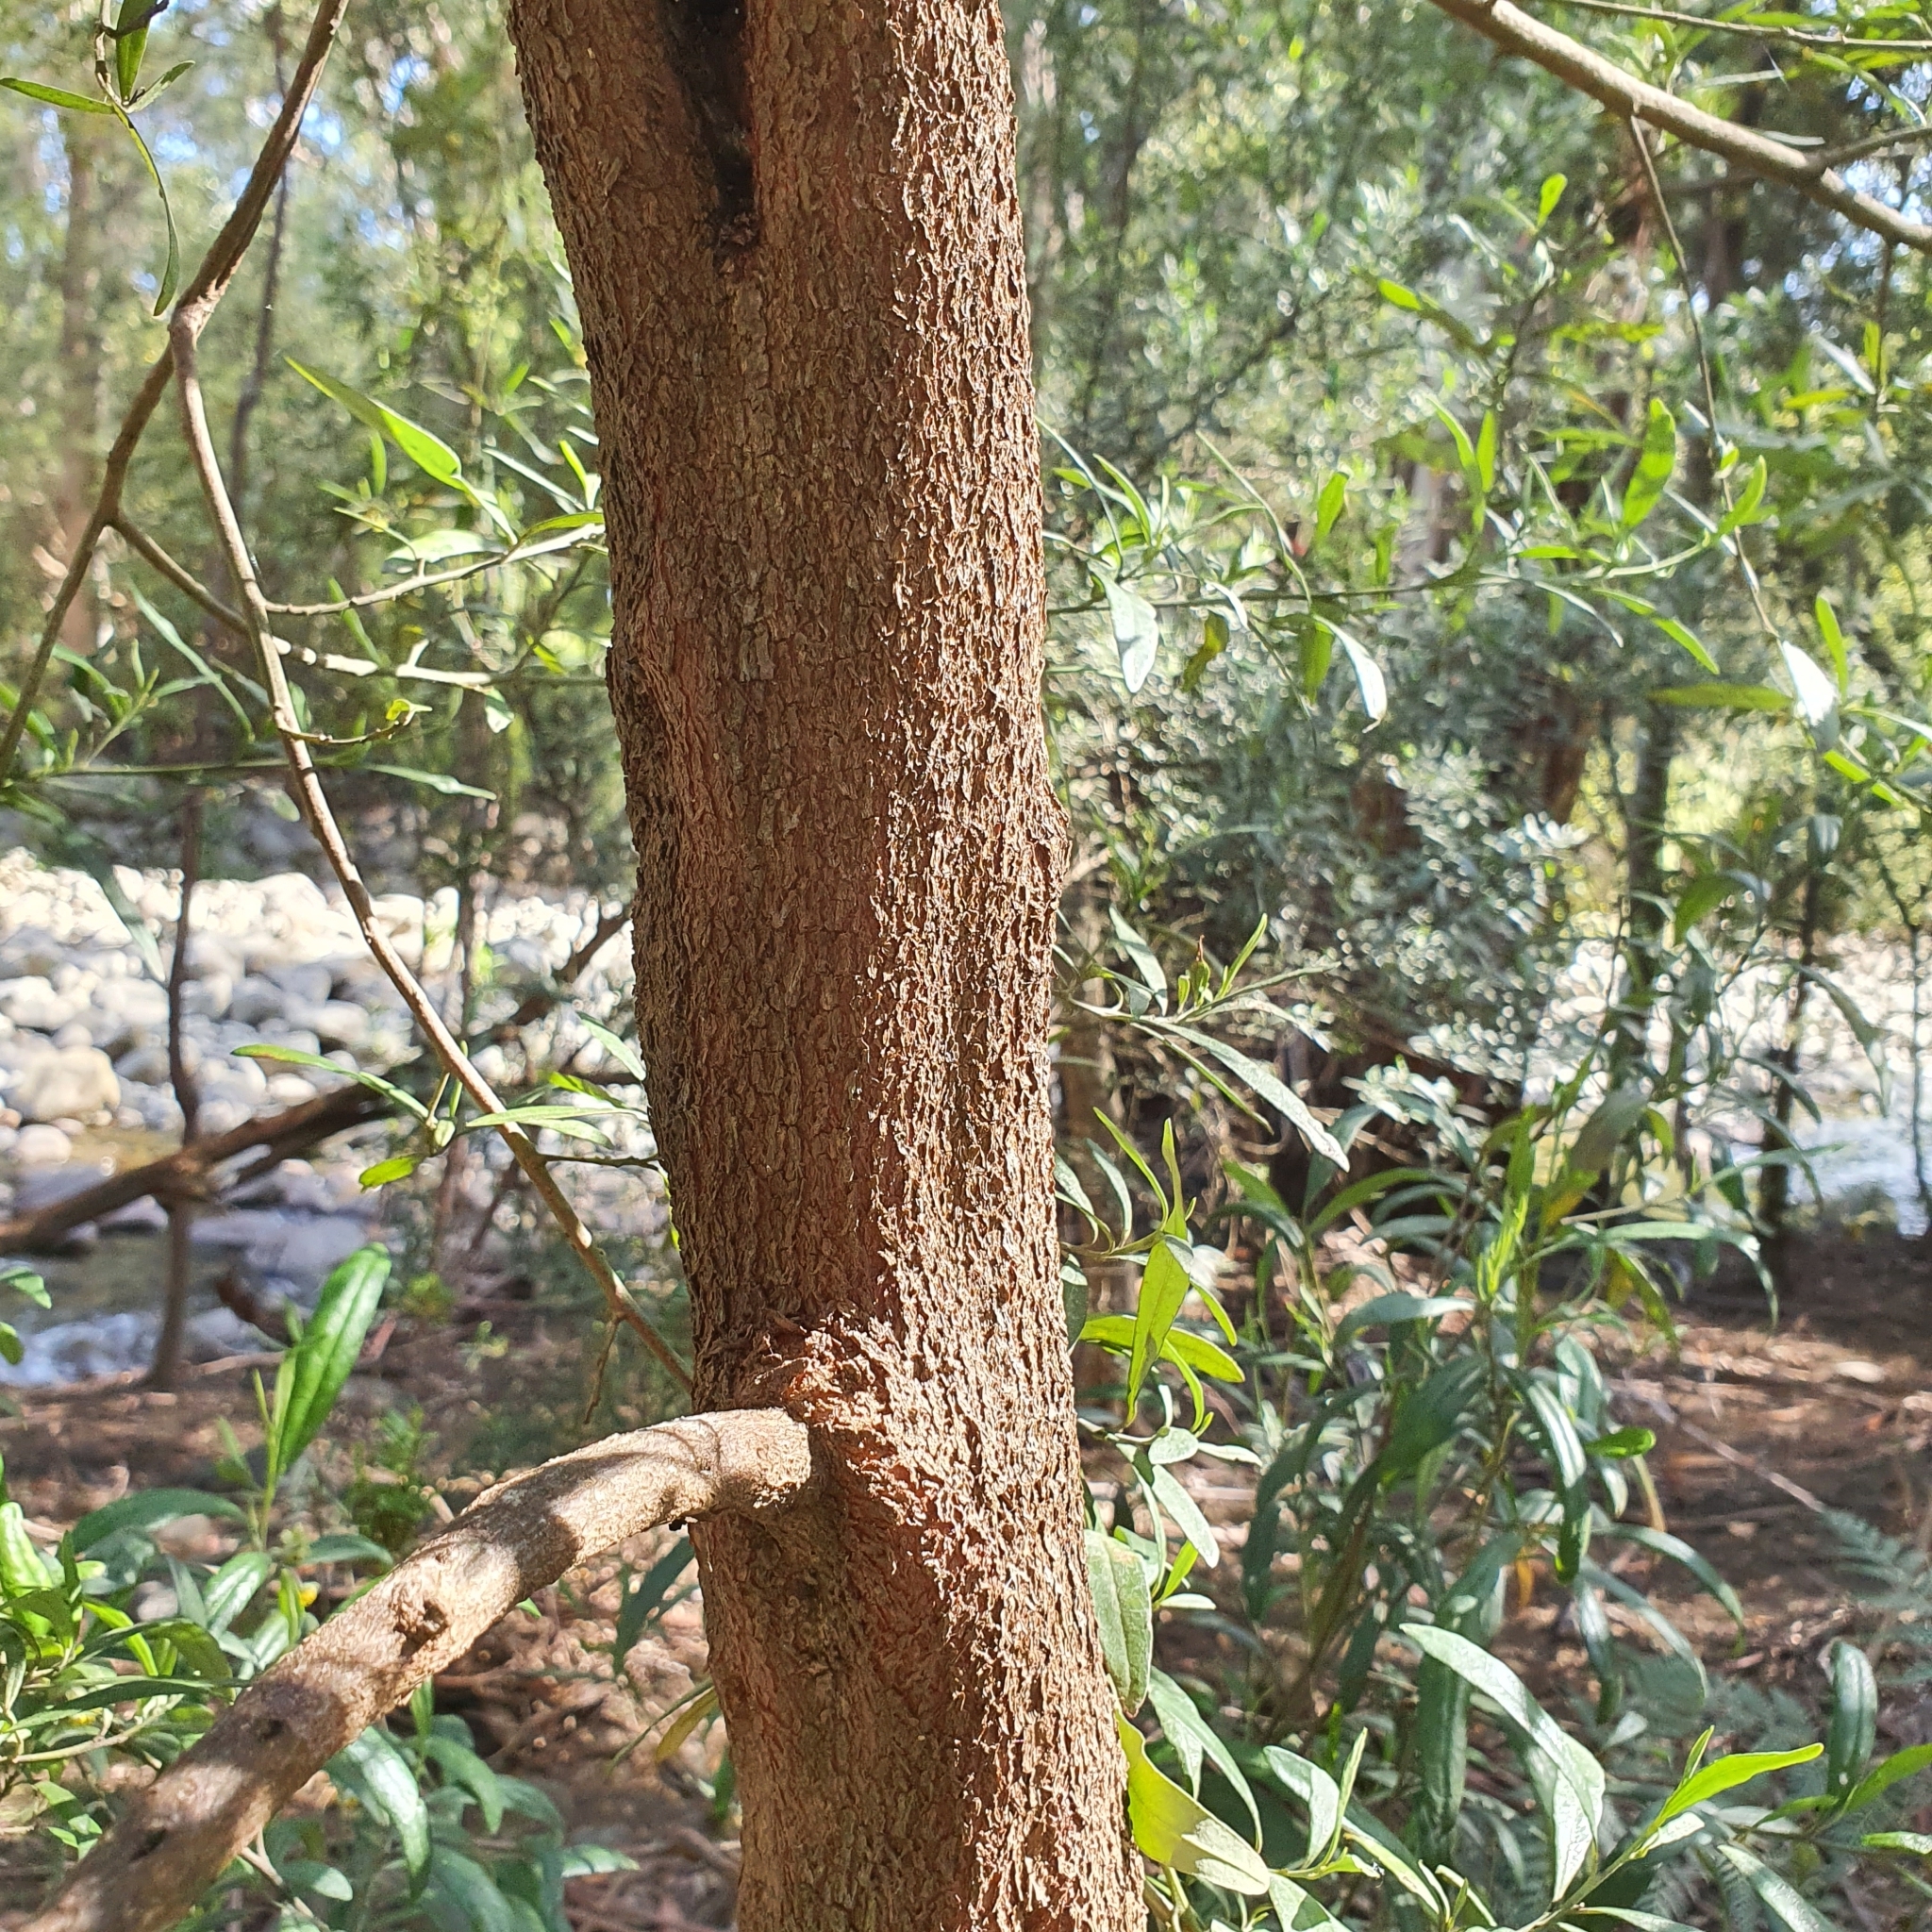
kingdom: Plantae
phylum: Tracheophyta
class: Magnoliopsida
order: Malpighiales
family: Euphorbiaceae
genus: Beyeria
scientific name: Beyeria viscosa
